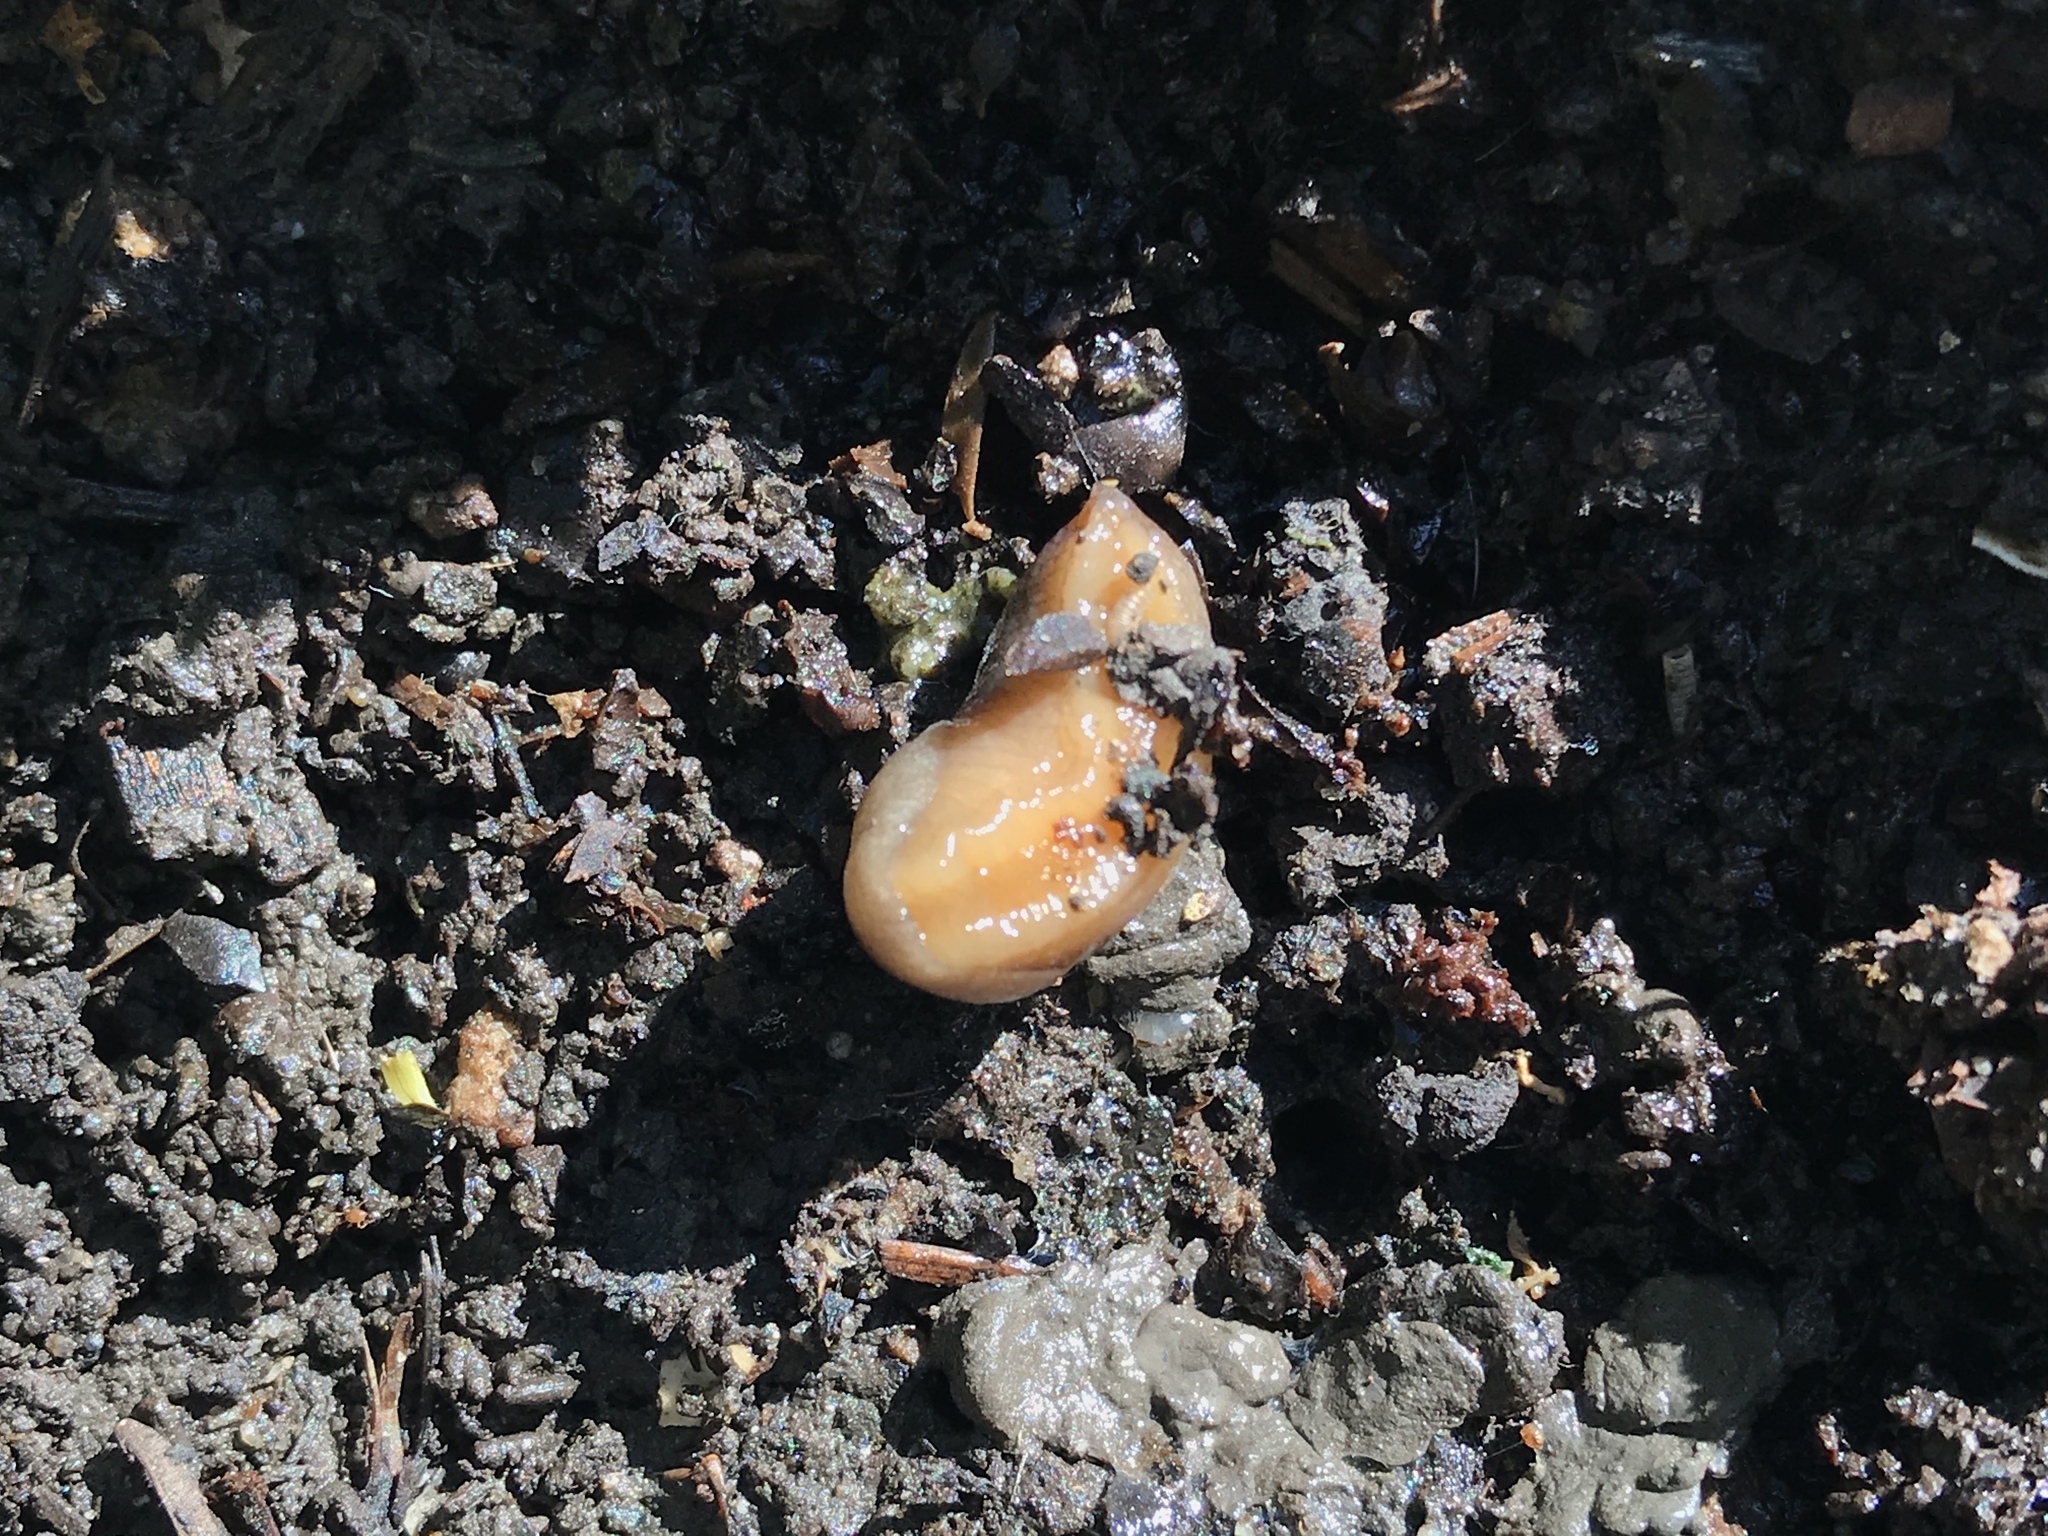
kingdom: Animalia
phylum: Mollusca
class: Gastropoda
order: Stylommatophora
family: Milacidae
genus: Milax
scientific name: Milax gagates
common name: Greenhouse slug
